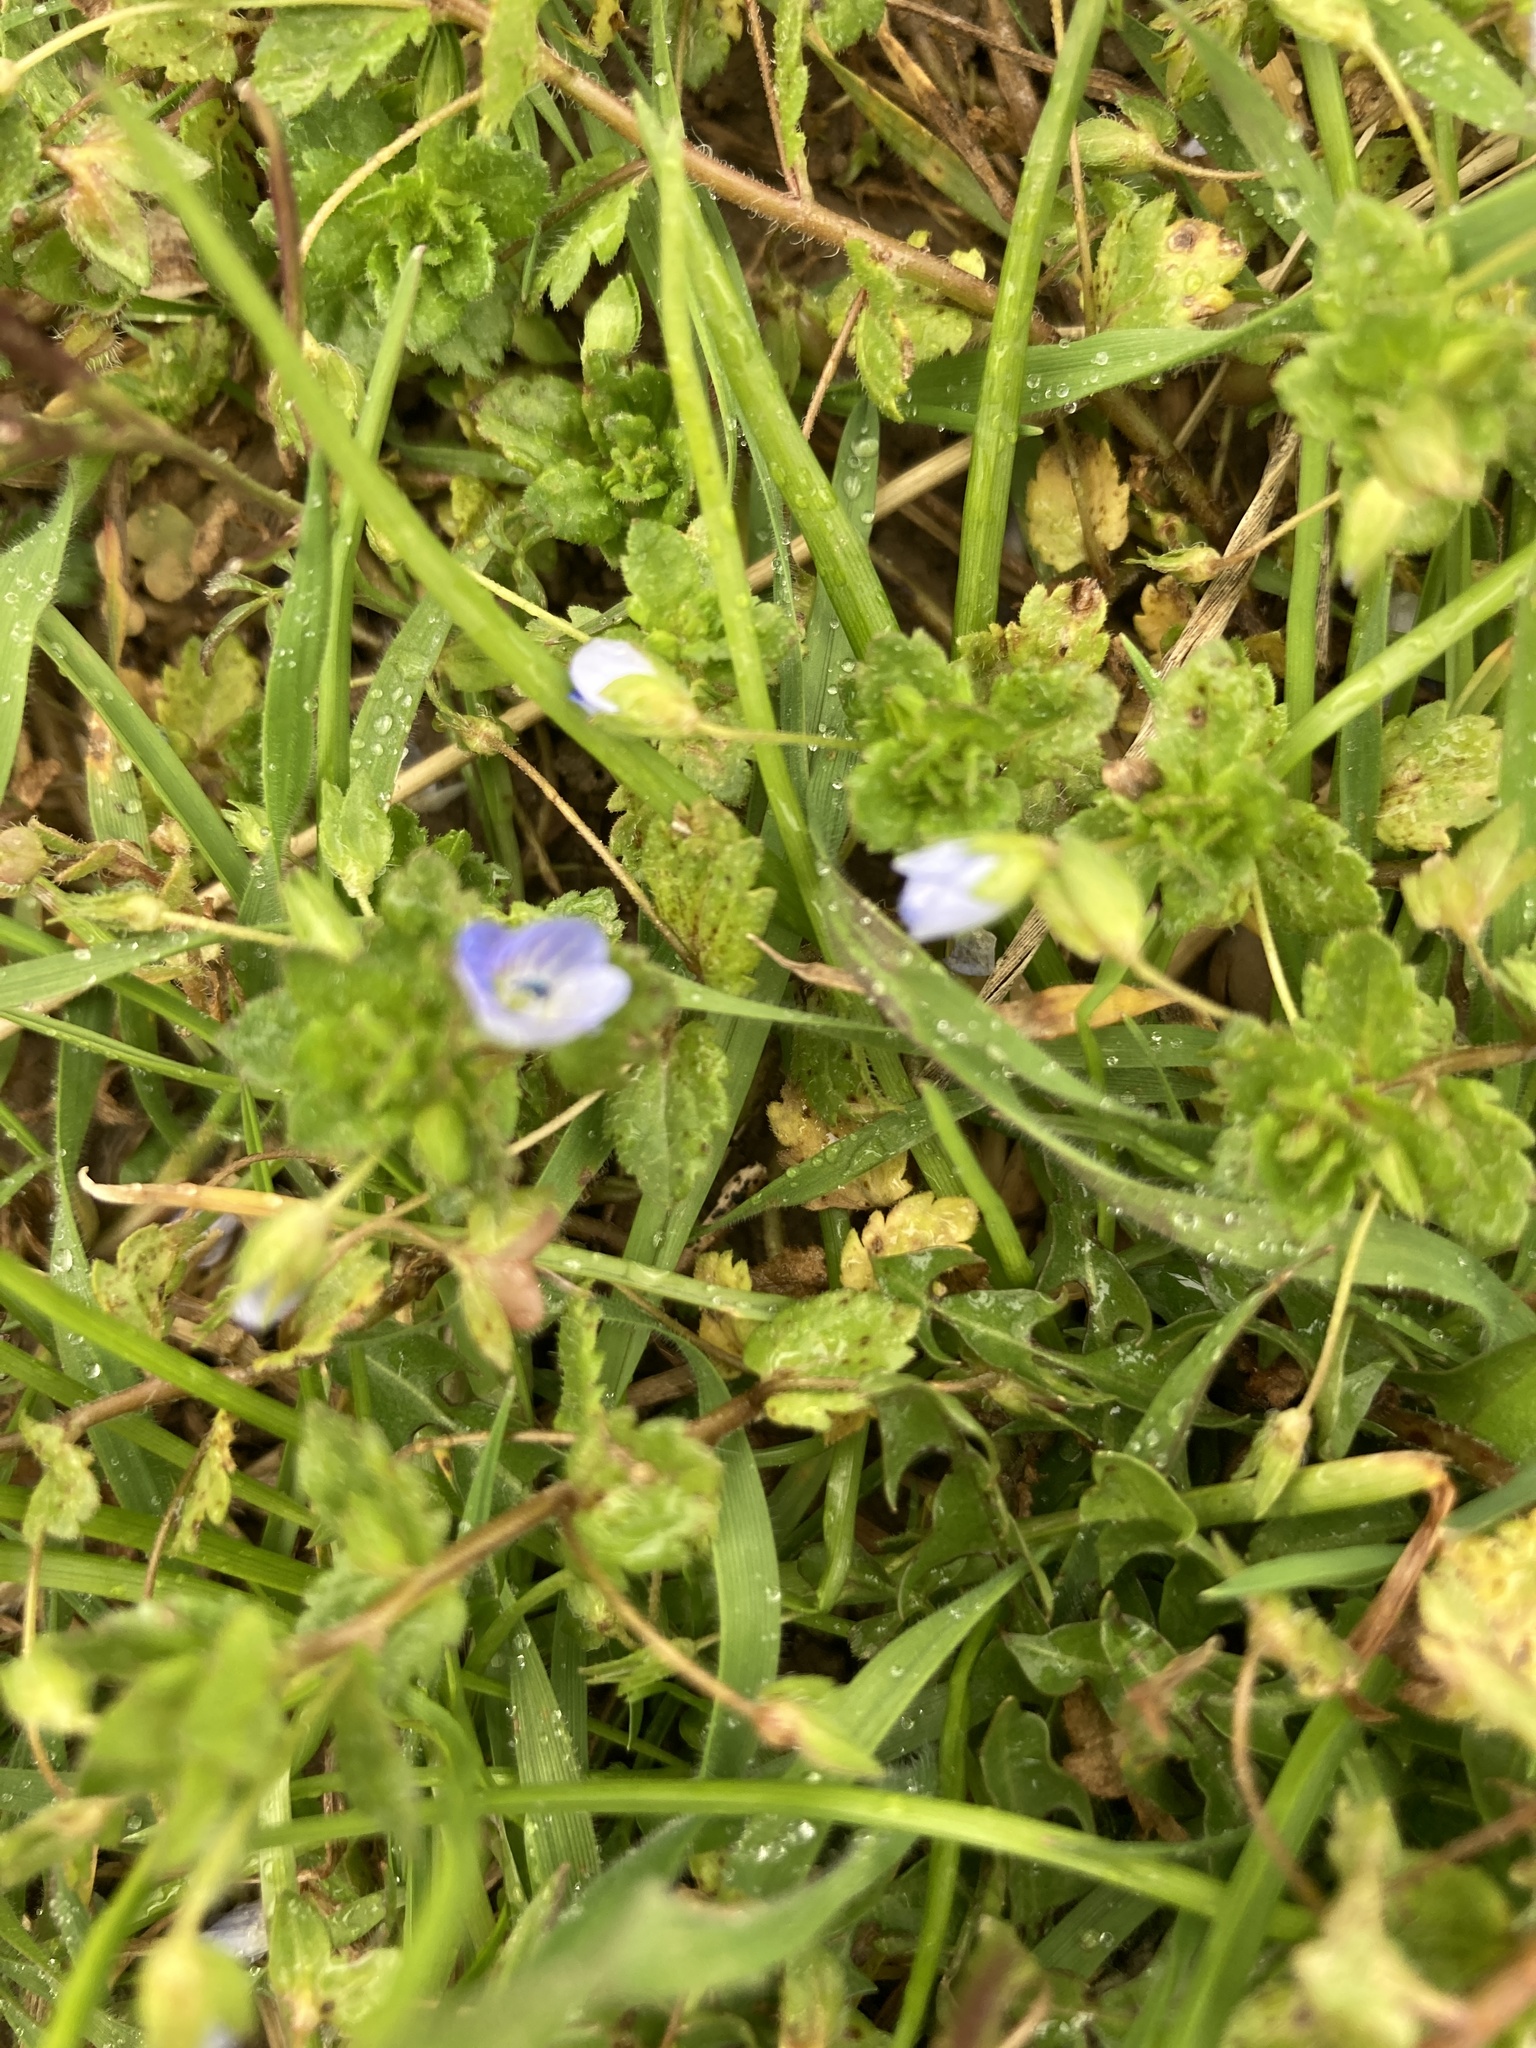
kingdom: Plantae
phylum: Tracheophyta
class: Magnoliopsida
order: Lamiales
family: Plantaginaceae
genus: Veronica
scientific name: Veronica persica
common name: Common field-speedwell
